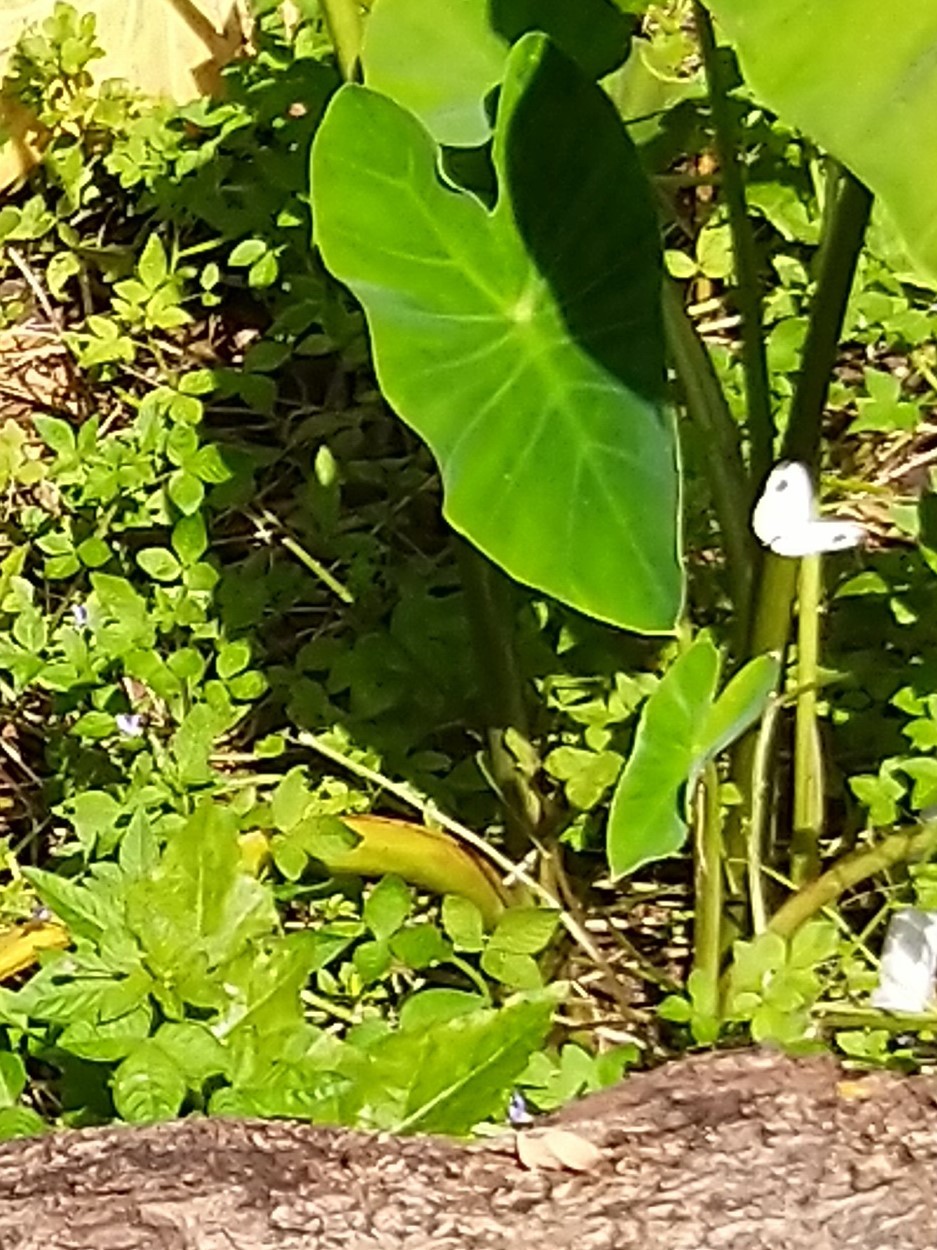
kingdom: Animalia
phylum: Arthropoda
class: Insecta
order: Lepidoptera
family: Pieridae
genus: Leptosia
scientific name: Leptosia nina
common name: Psyche
